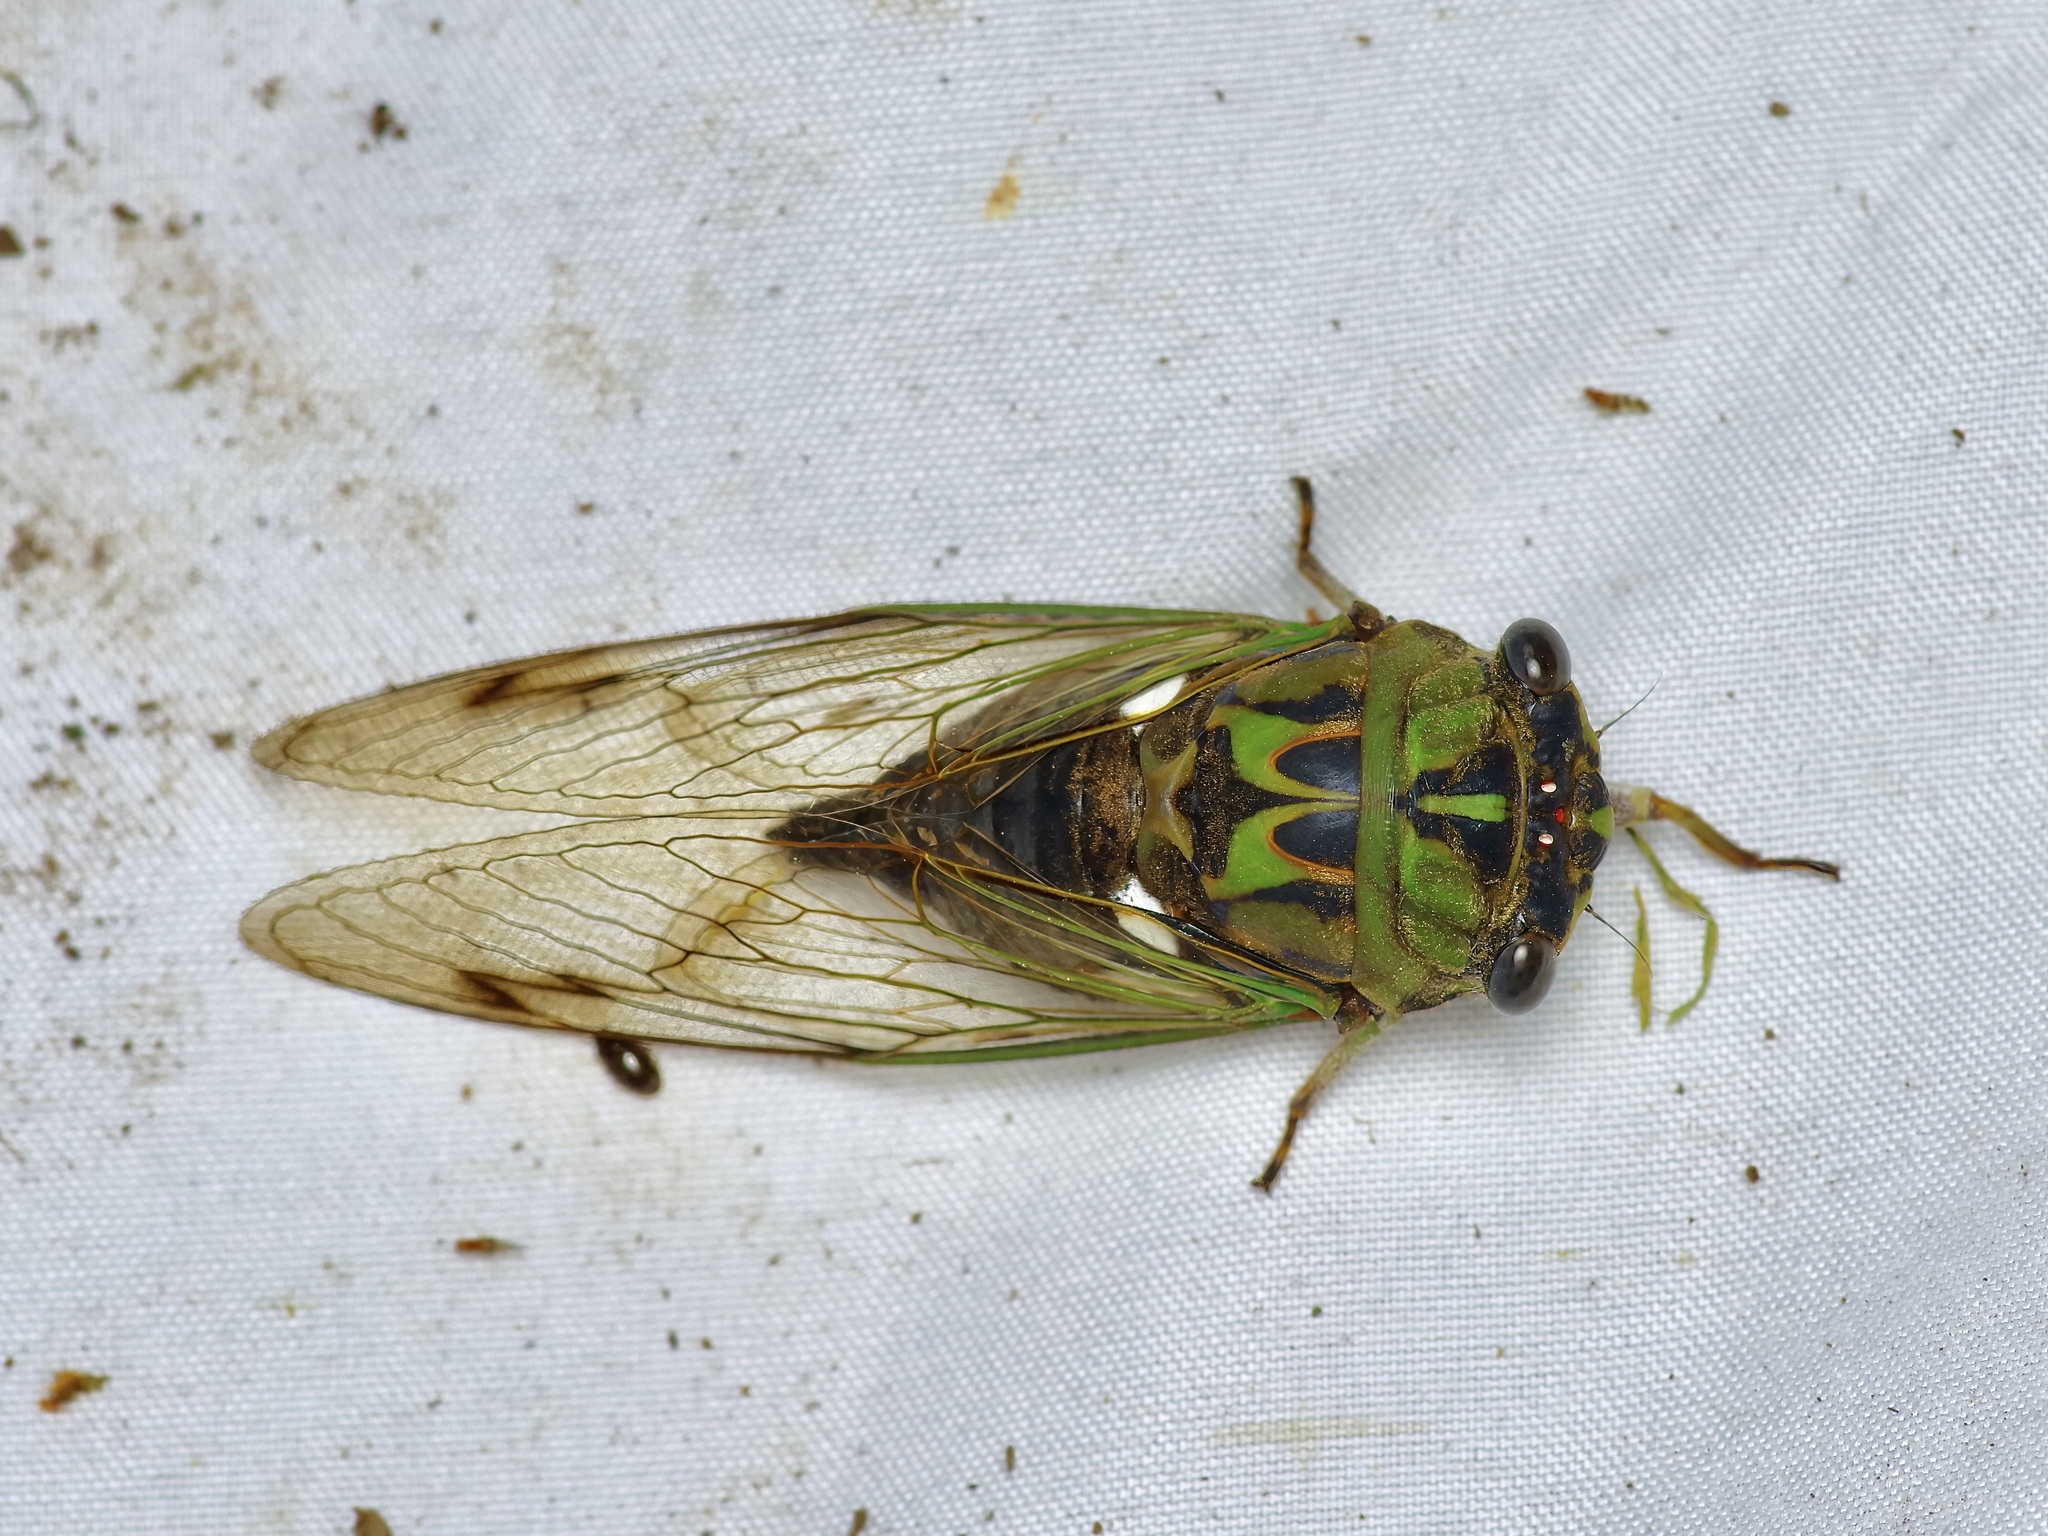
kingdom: Animalia
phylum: Arthropoda
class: Insecta
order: Hemiptera
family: Cicadidae
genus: Neotibicen
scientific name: Neotibicen pruinosus
